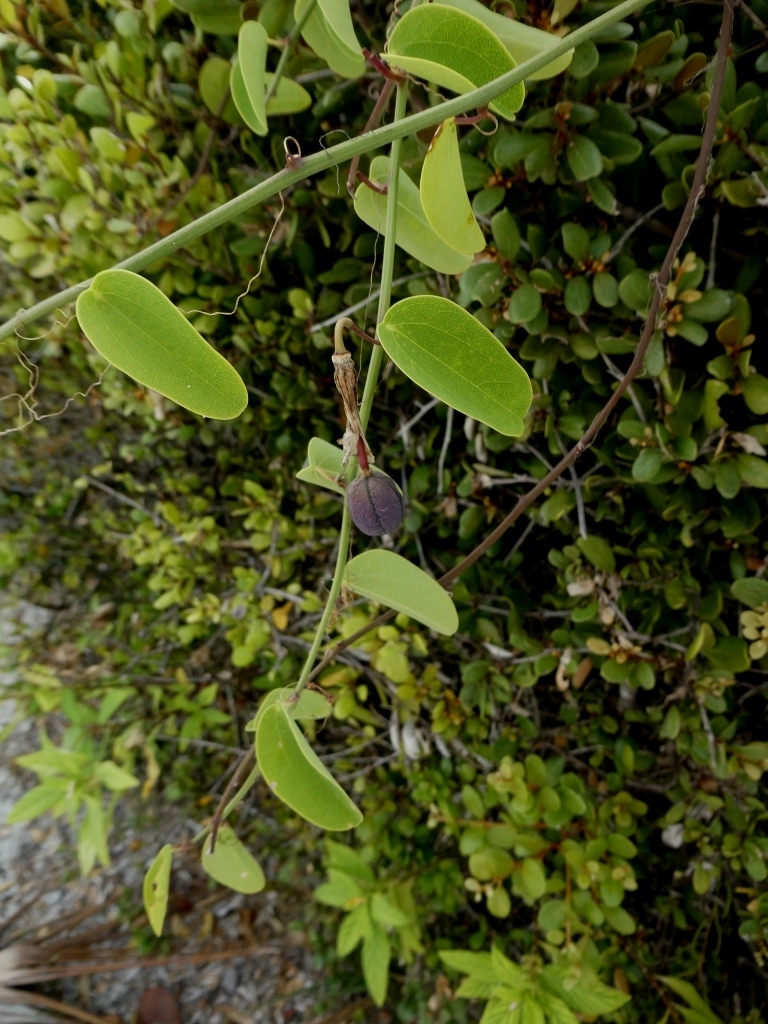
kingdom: Plantae
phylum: Tracheophyta
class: Magnoliopsida
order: Malpighiales
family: Passifloraceae
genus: Passiflora
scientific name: Passiflora cupraea
